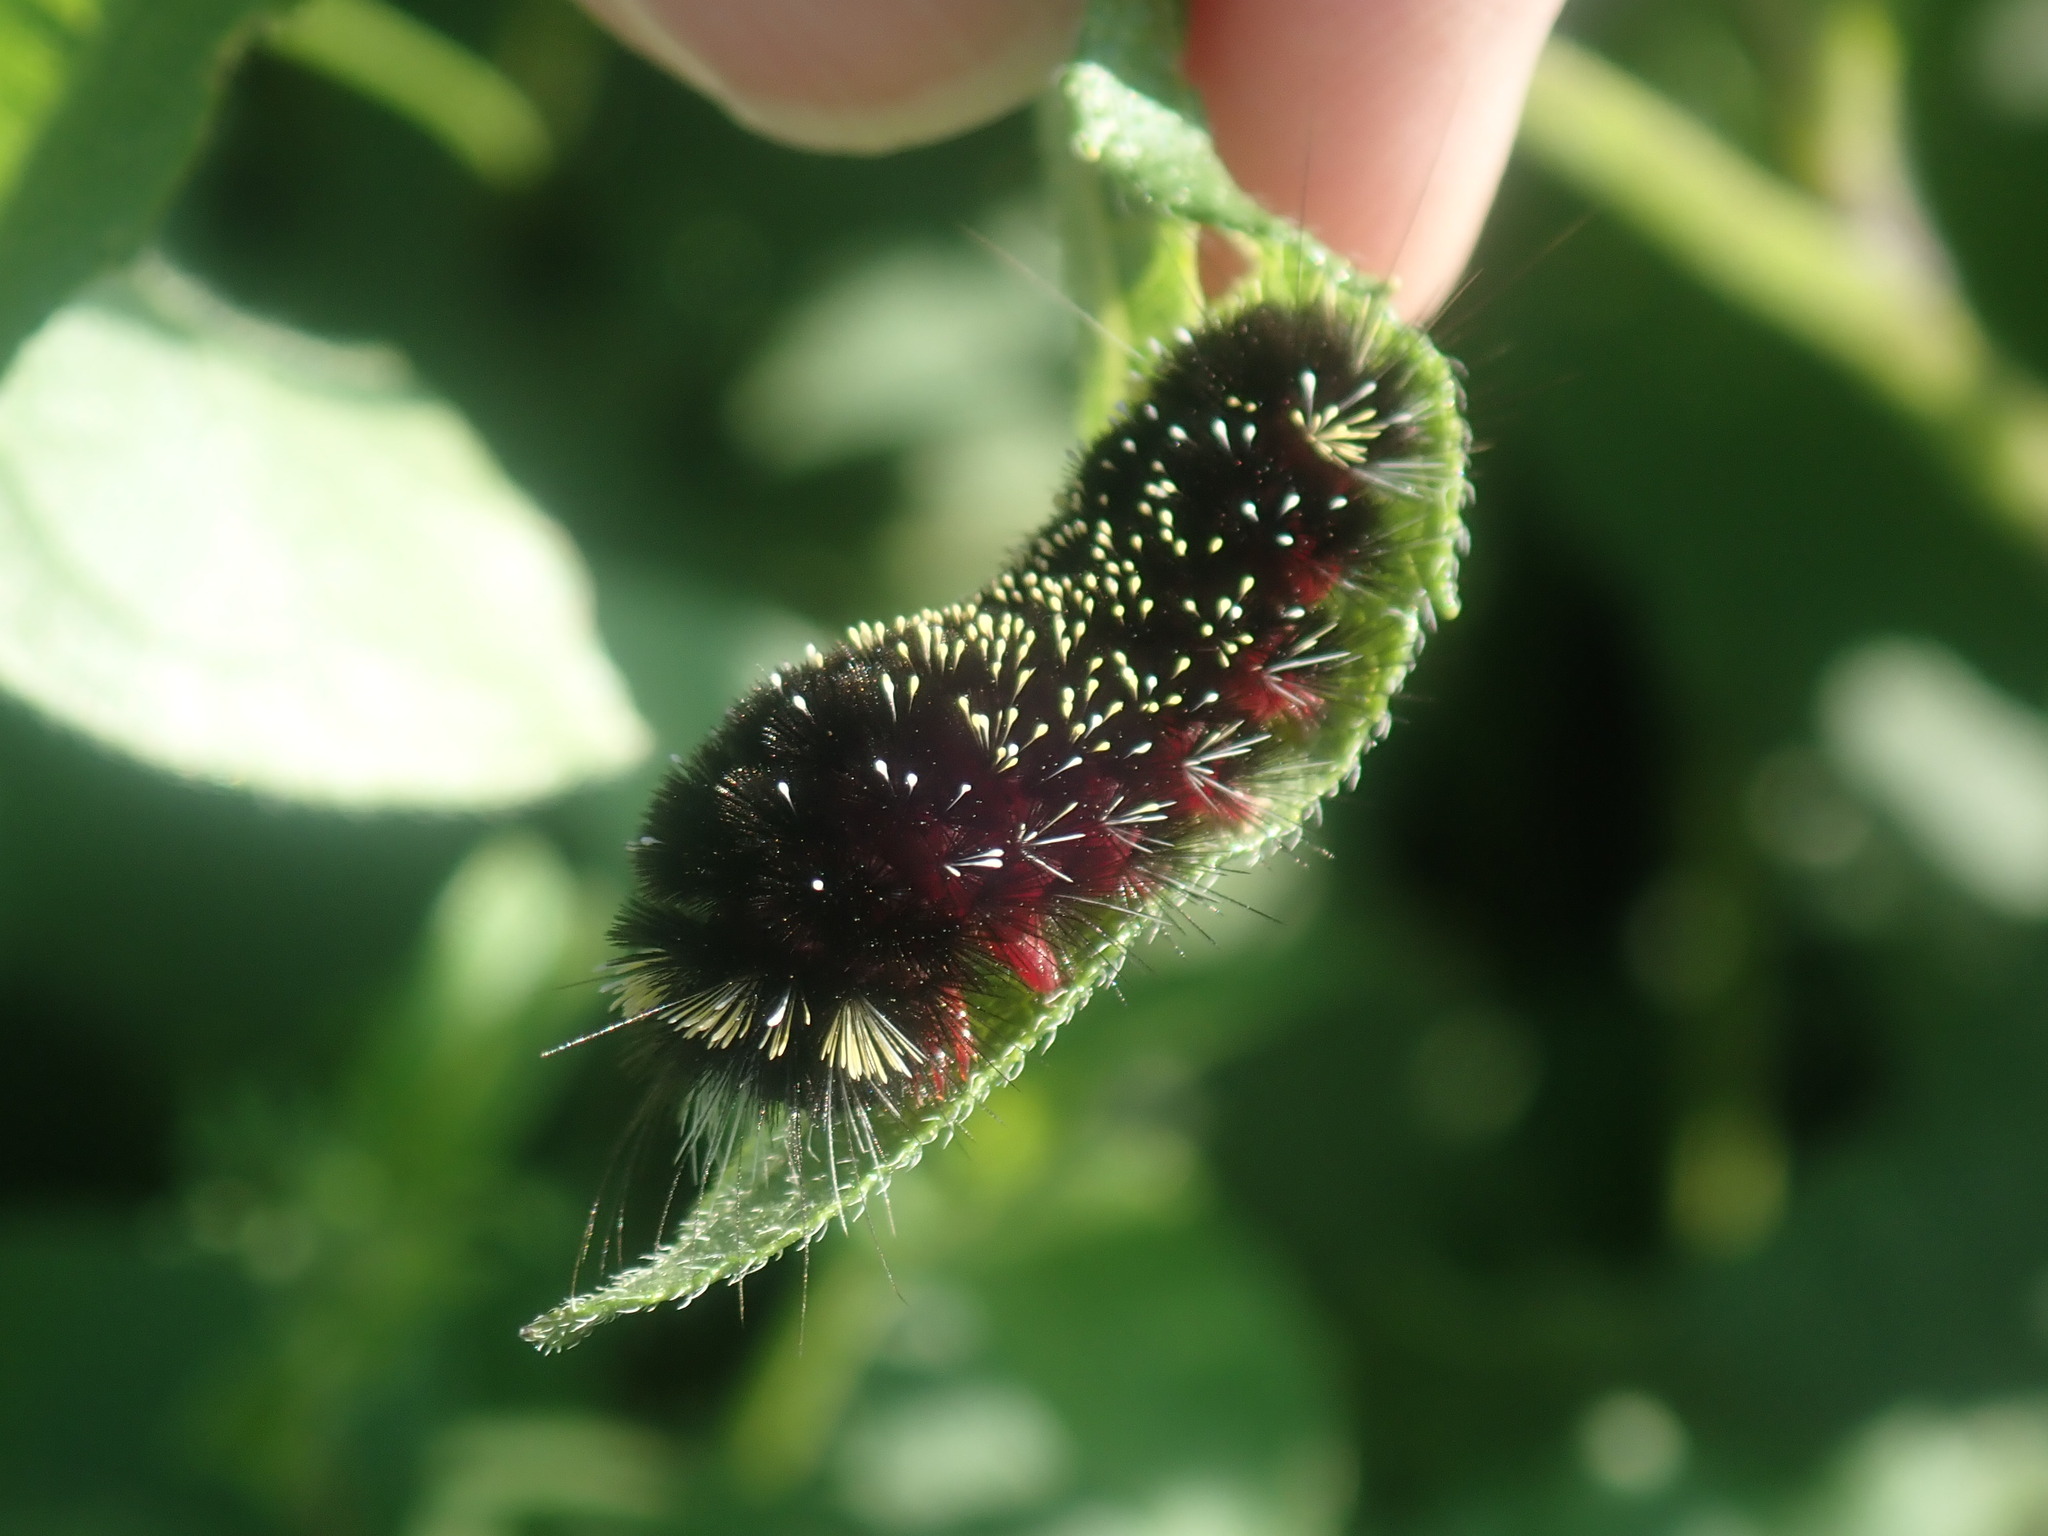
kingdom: Animalia
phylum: Arthropoda
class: Insecta
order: Lepidoptera
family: Erebidae
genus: Hypocrisias
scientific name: Hypocrisias minima
